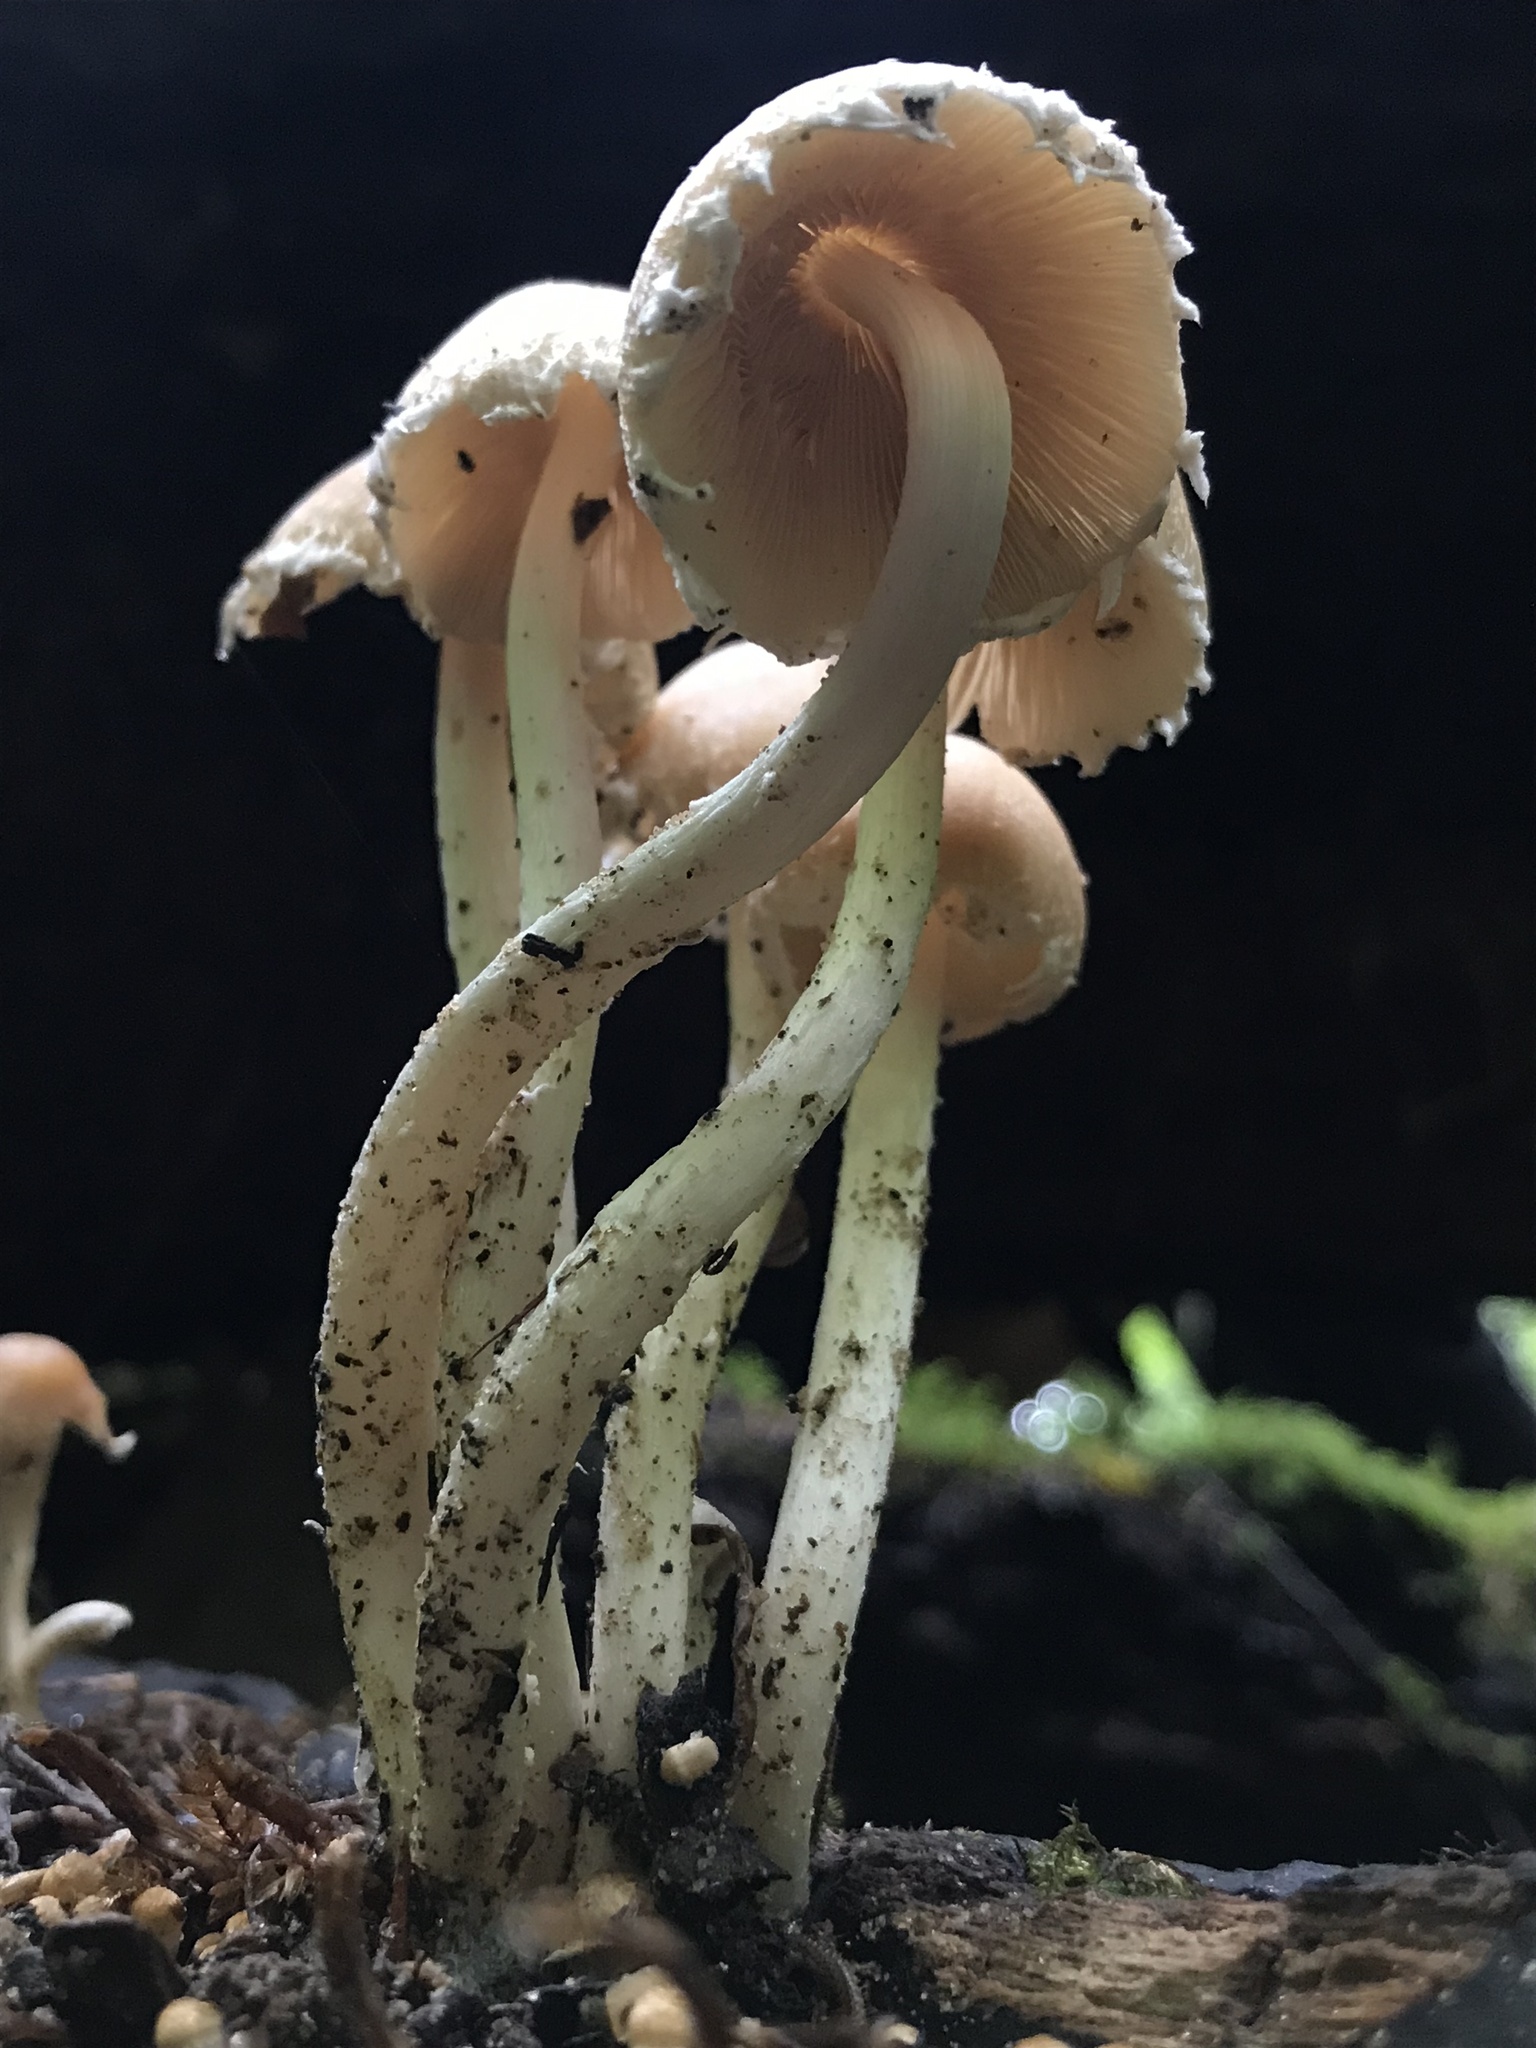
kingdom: Fungi
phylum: Basidiomycota
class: Agaricomycetes
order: Agaricales
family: Psathyrellaceae
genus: Candolleomyces
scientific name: Candolleomyces candolleanus
